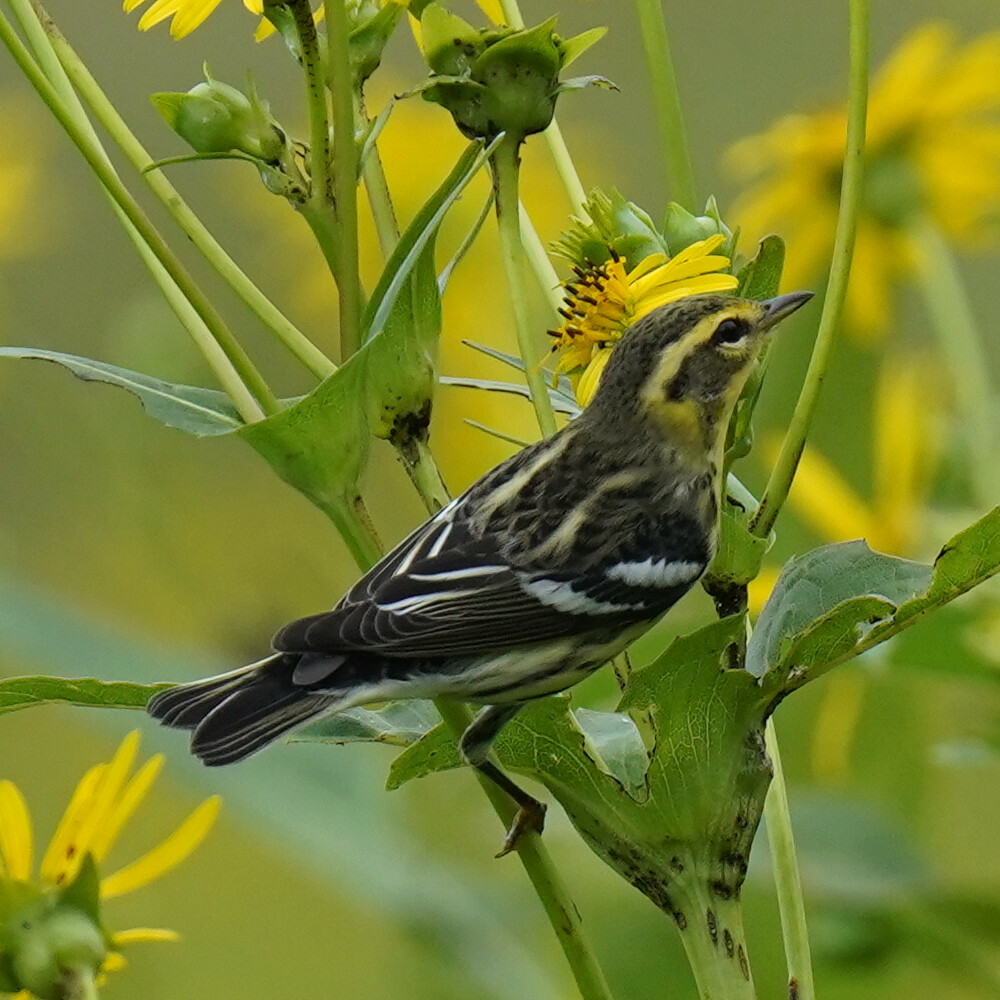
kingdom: Animalia
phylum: Chordata
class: Aves
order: Passeriformes
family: Parulidae
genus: Setophaga
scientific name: Setophaga fusca
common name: Blackburnian warbler
